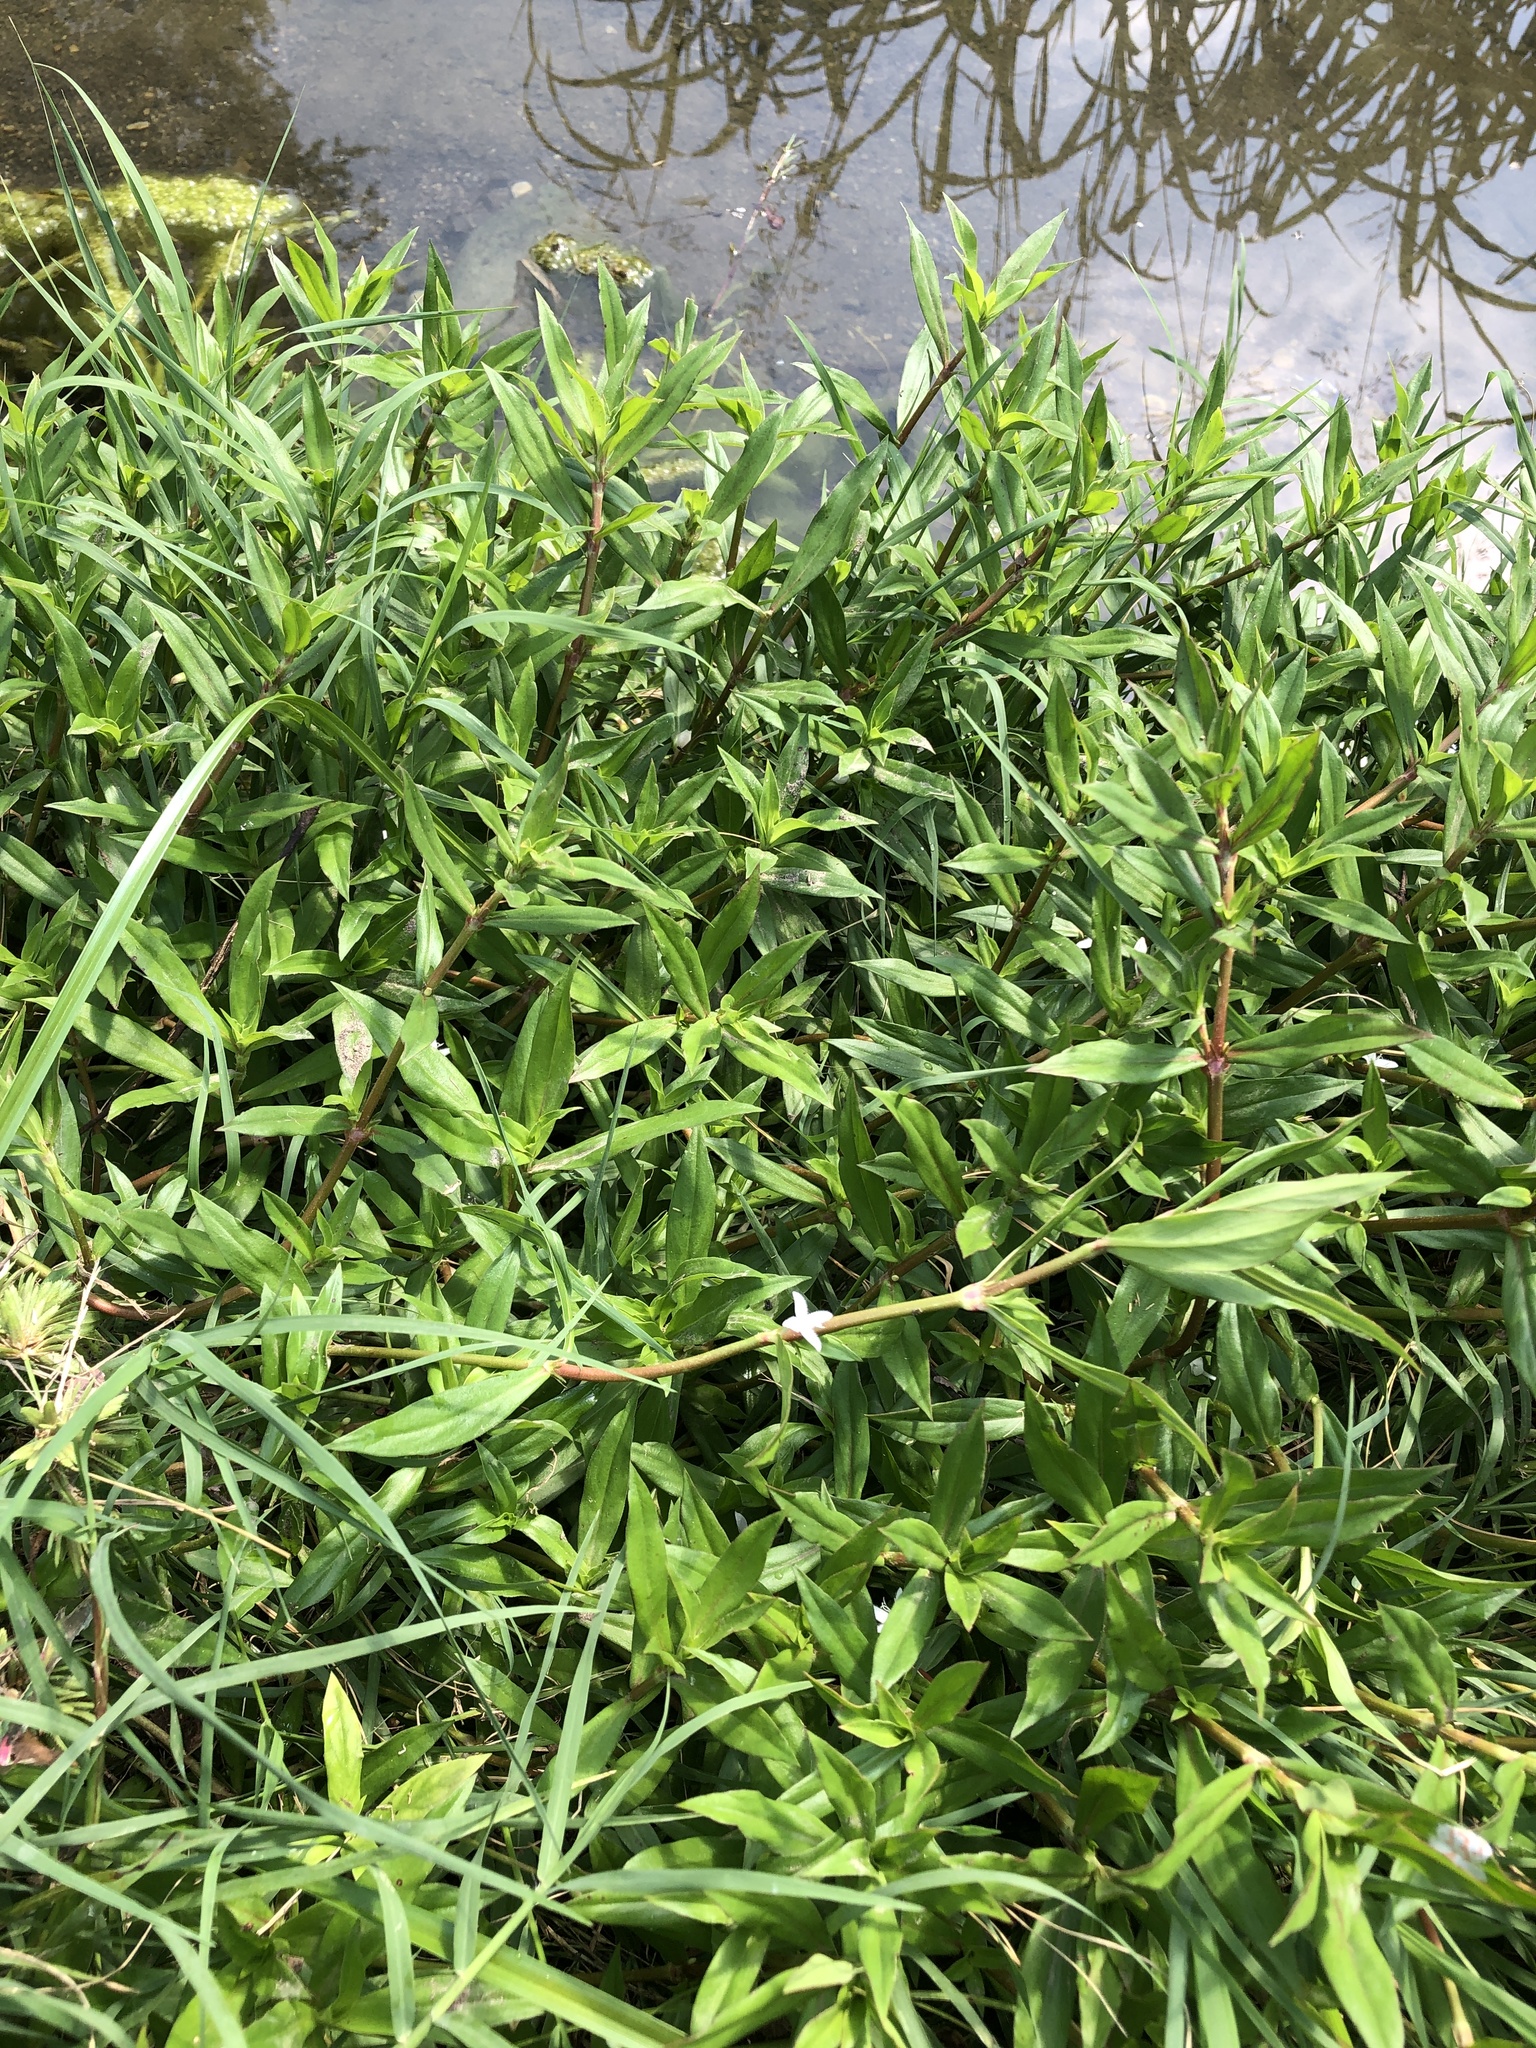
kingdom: Plantae
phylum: Tracheophyta
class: Magnoliopsida
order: Gentianales
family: Rubiaceae
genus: Diodia
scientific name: Diodia virginiana
